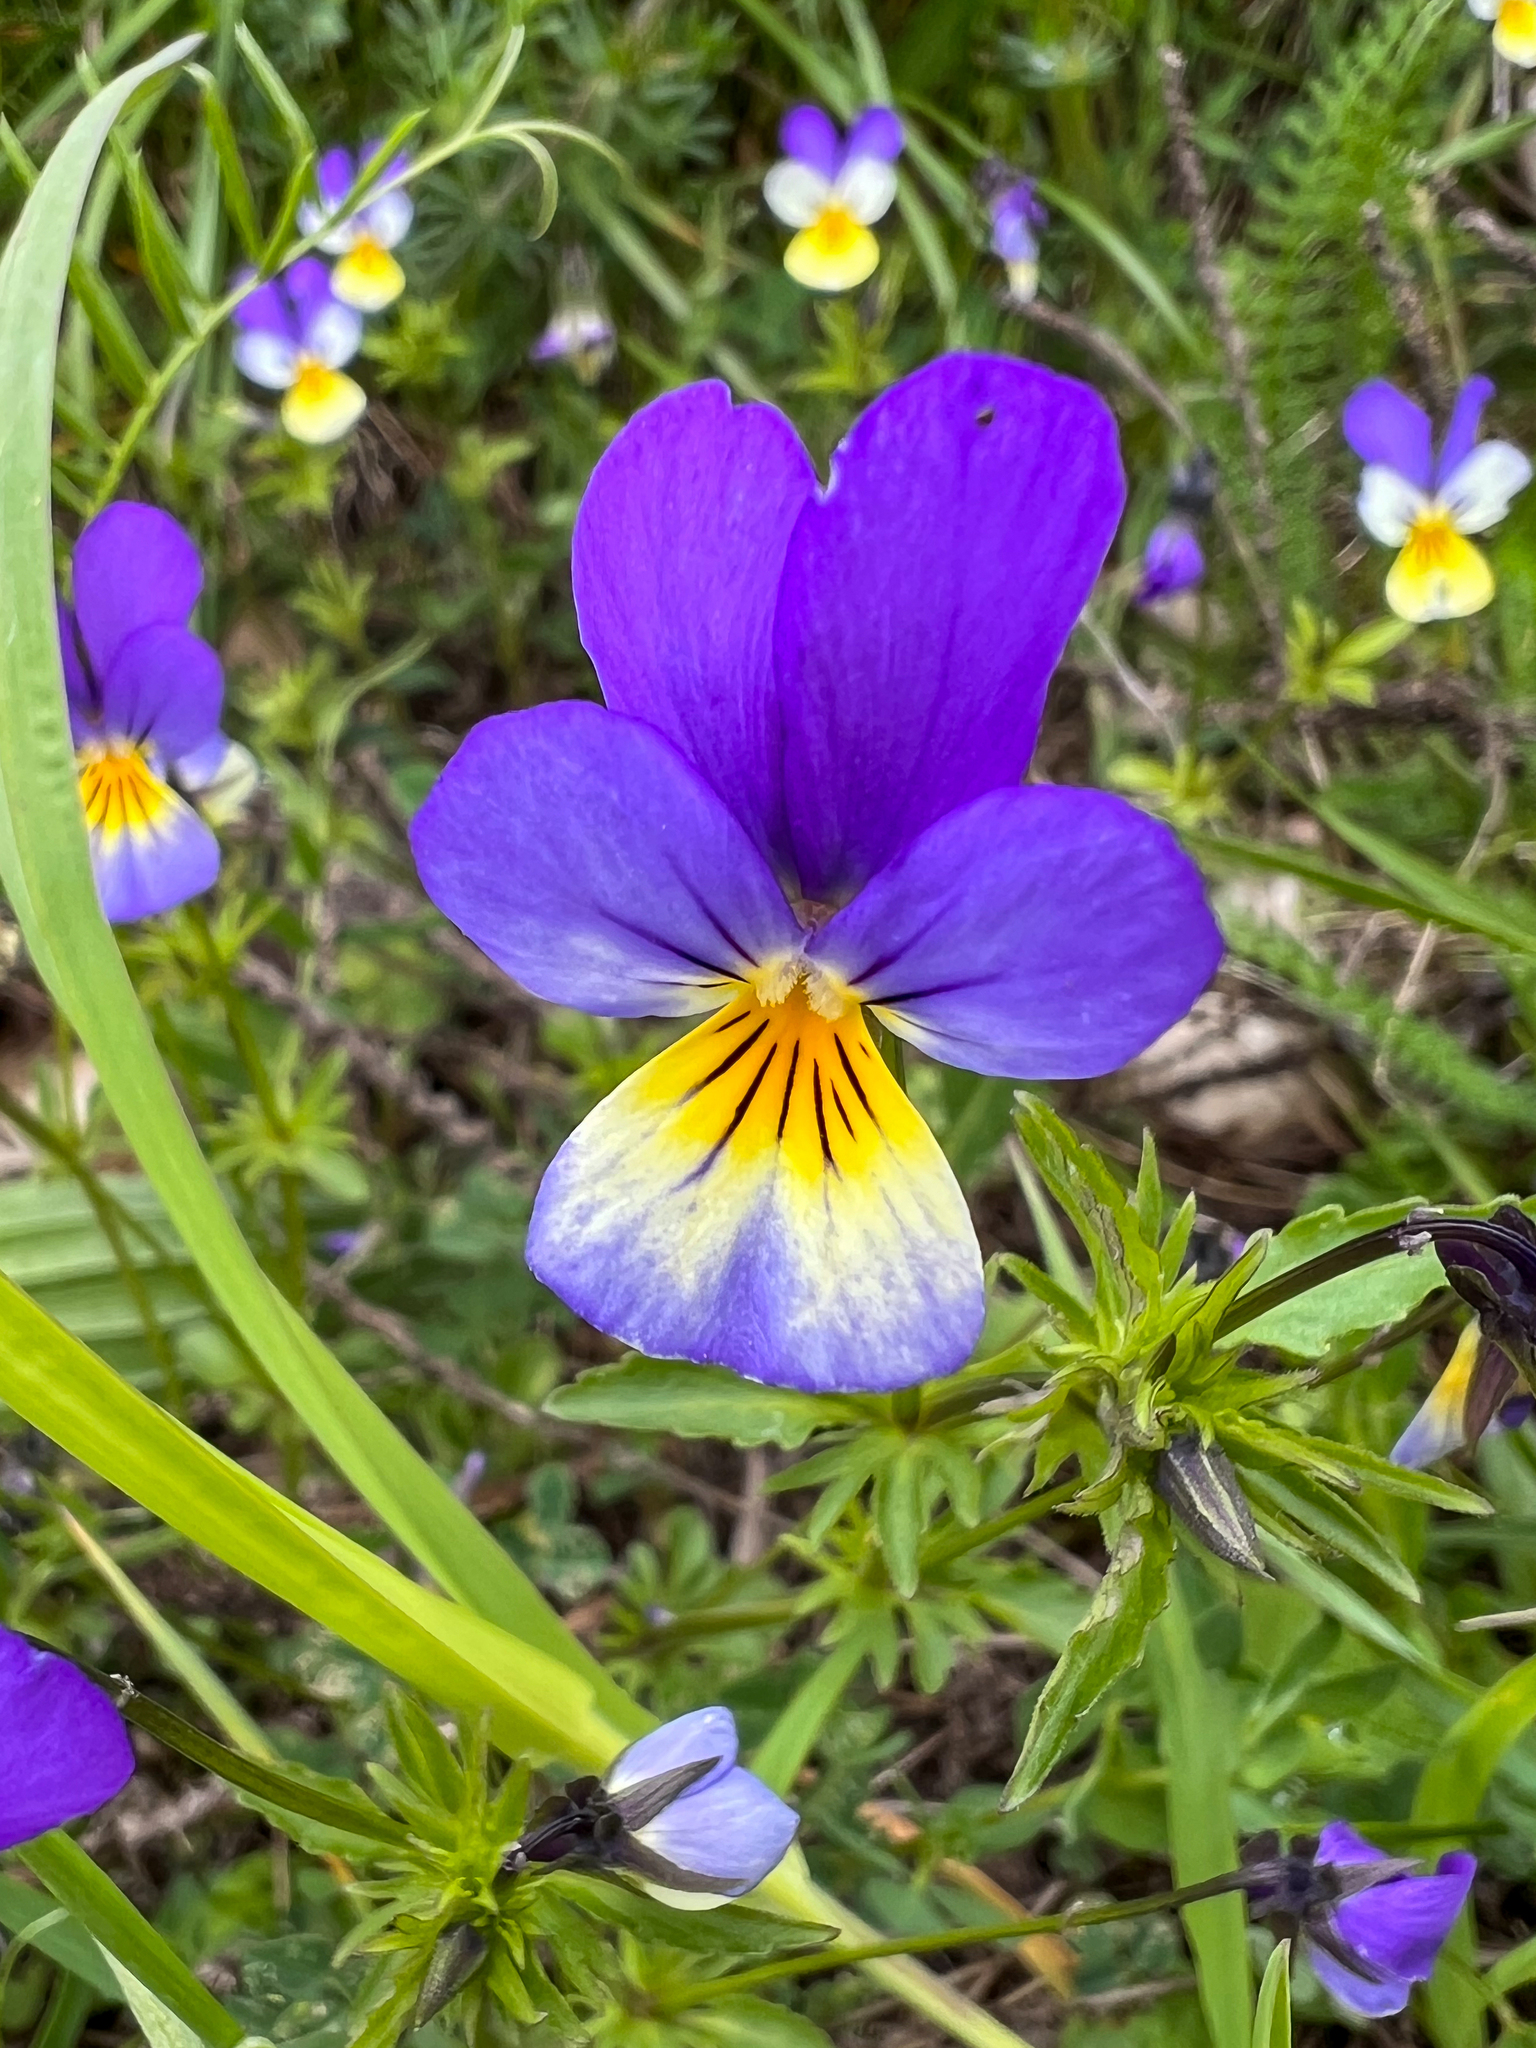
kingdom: Plantae
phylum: Tracheophyta
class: Magnoliopsida
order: Malpighiales
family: Violaceae
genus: Viola
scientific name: Viola tricolor
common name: Pansy
